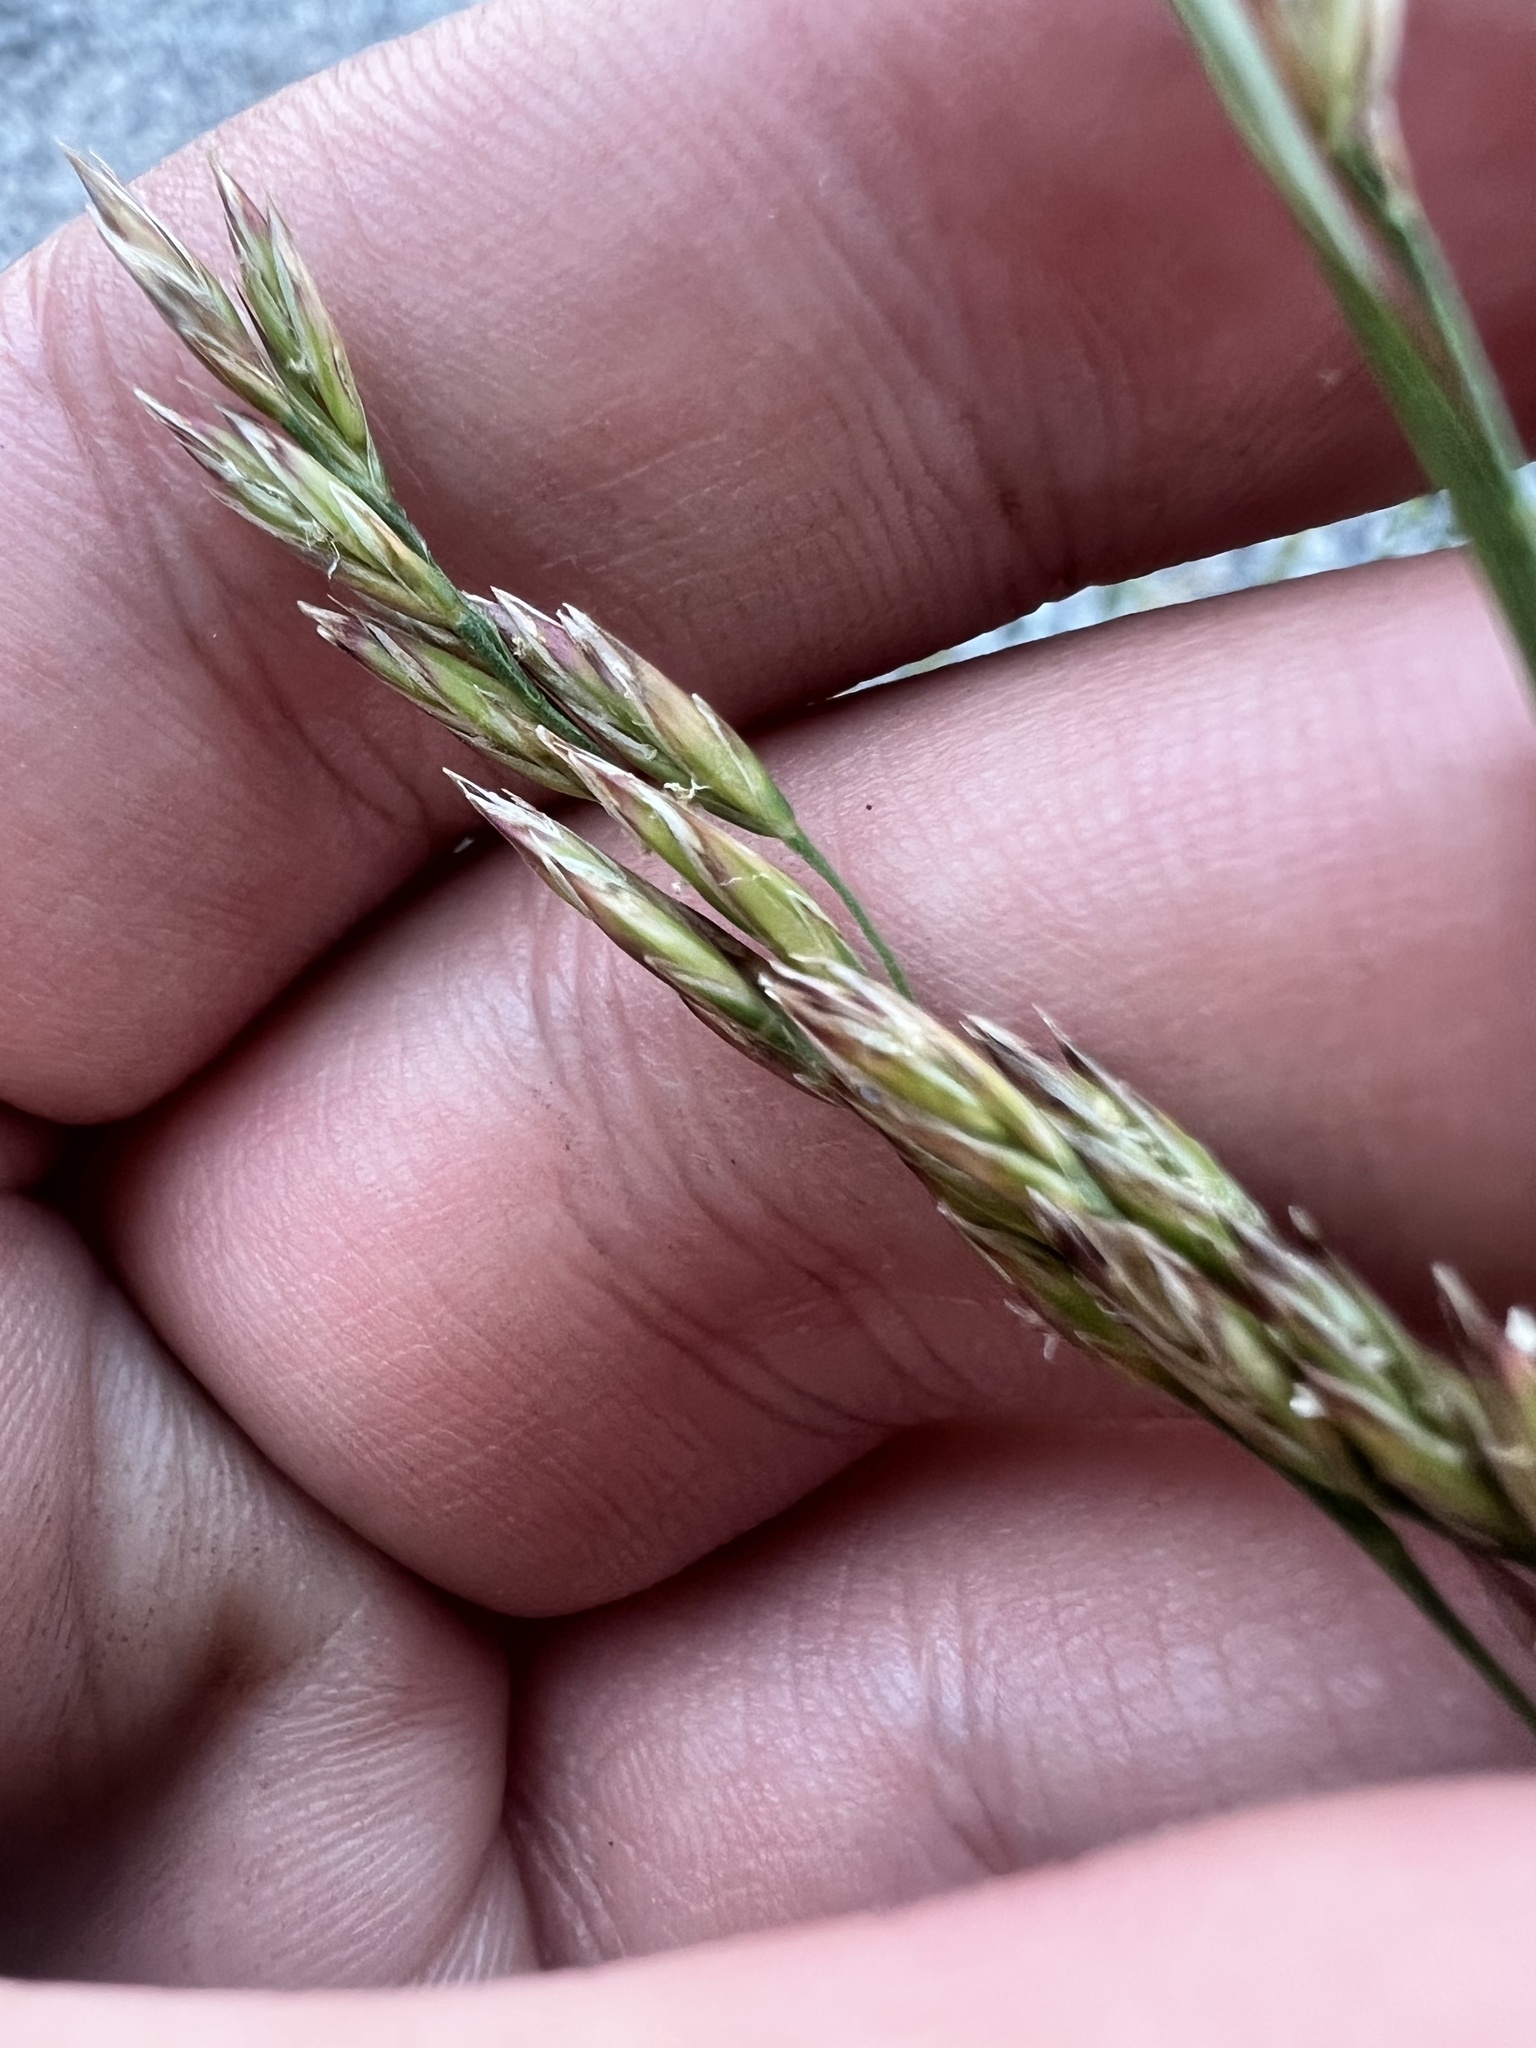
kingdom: Plantae
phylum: Tracheophyta
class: Liliopsida
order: Poales
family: Poaceae
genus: Lolium
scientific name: Lolium arundinaceum
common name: Reed fescue
